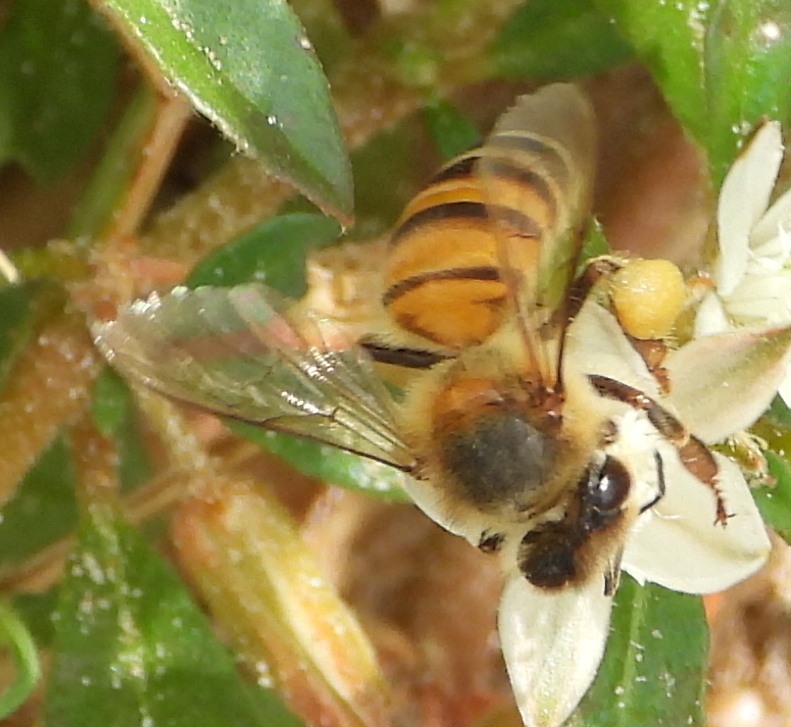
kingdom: Animalia
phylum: Arthropoda
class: Insecta
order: Hymenoptera
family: Apidae
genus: Apis
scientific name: Apis mellifera
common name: Honey bee
